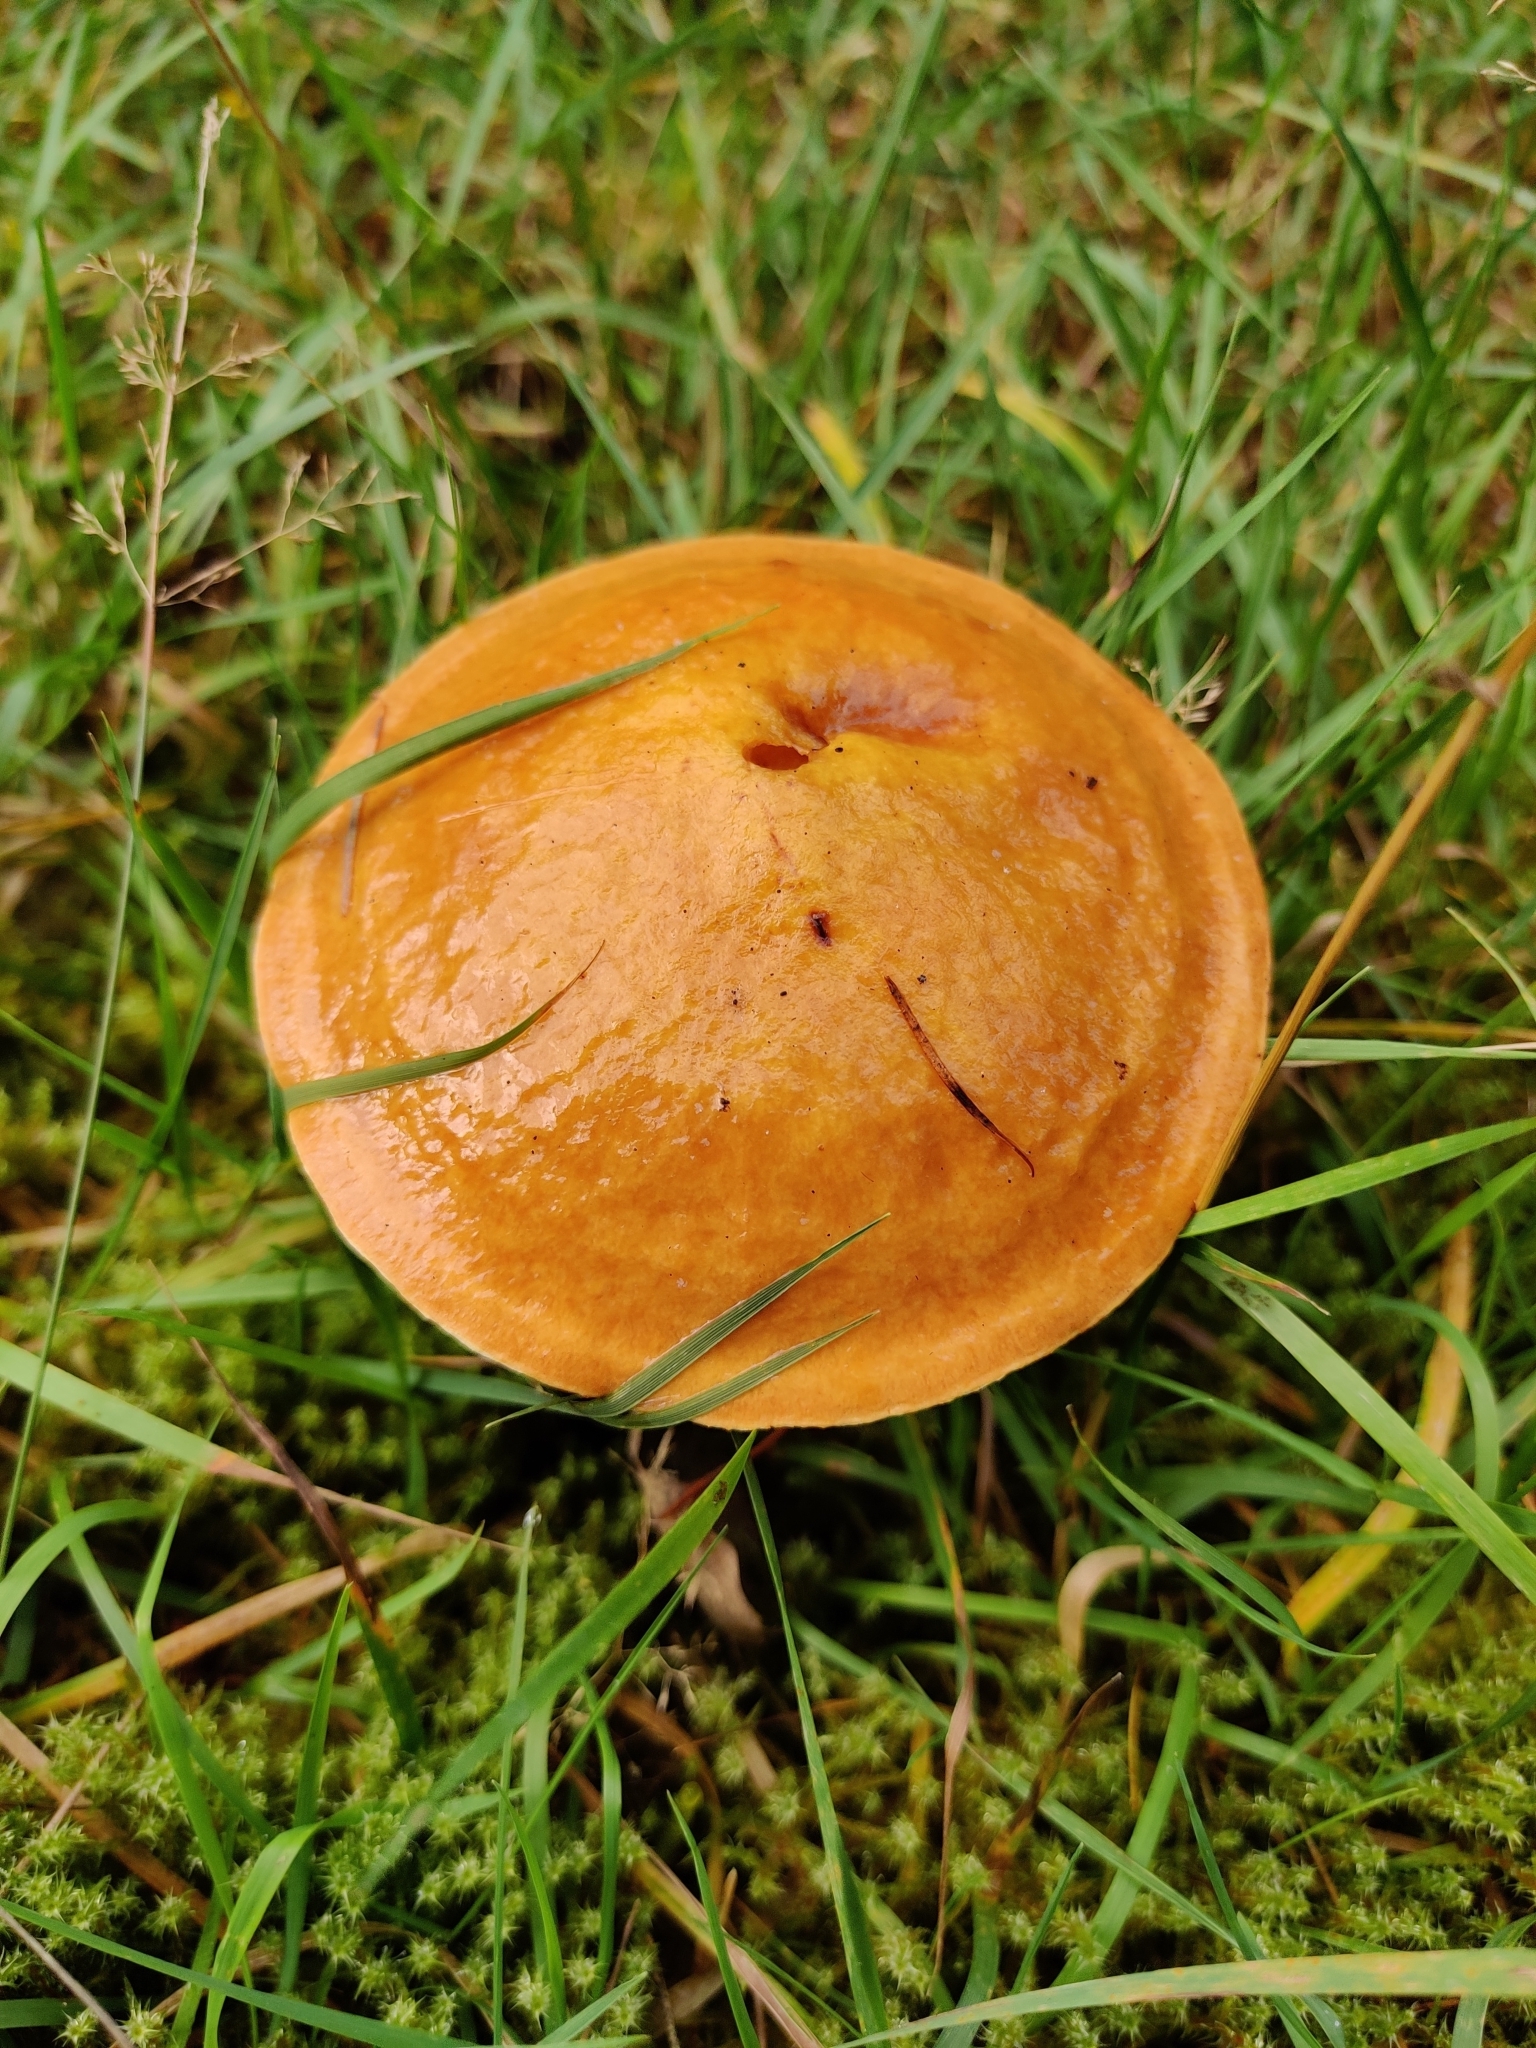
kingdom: Fungi
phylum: Basidiomycota
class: Agaricomycetes
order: Boletales
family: Suillaceae
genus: Suillus
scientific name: Suillus grevillei
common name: Larch bolete
